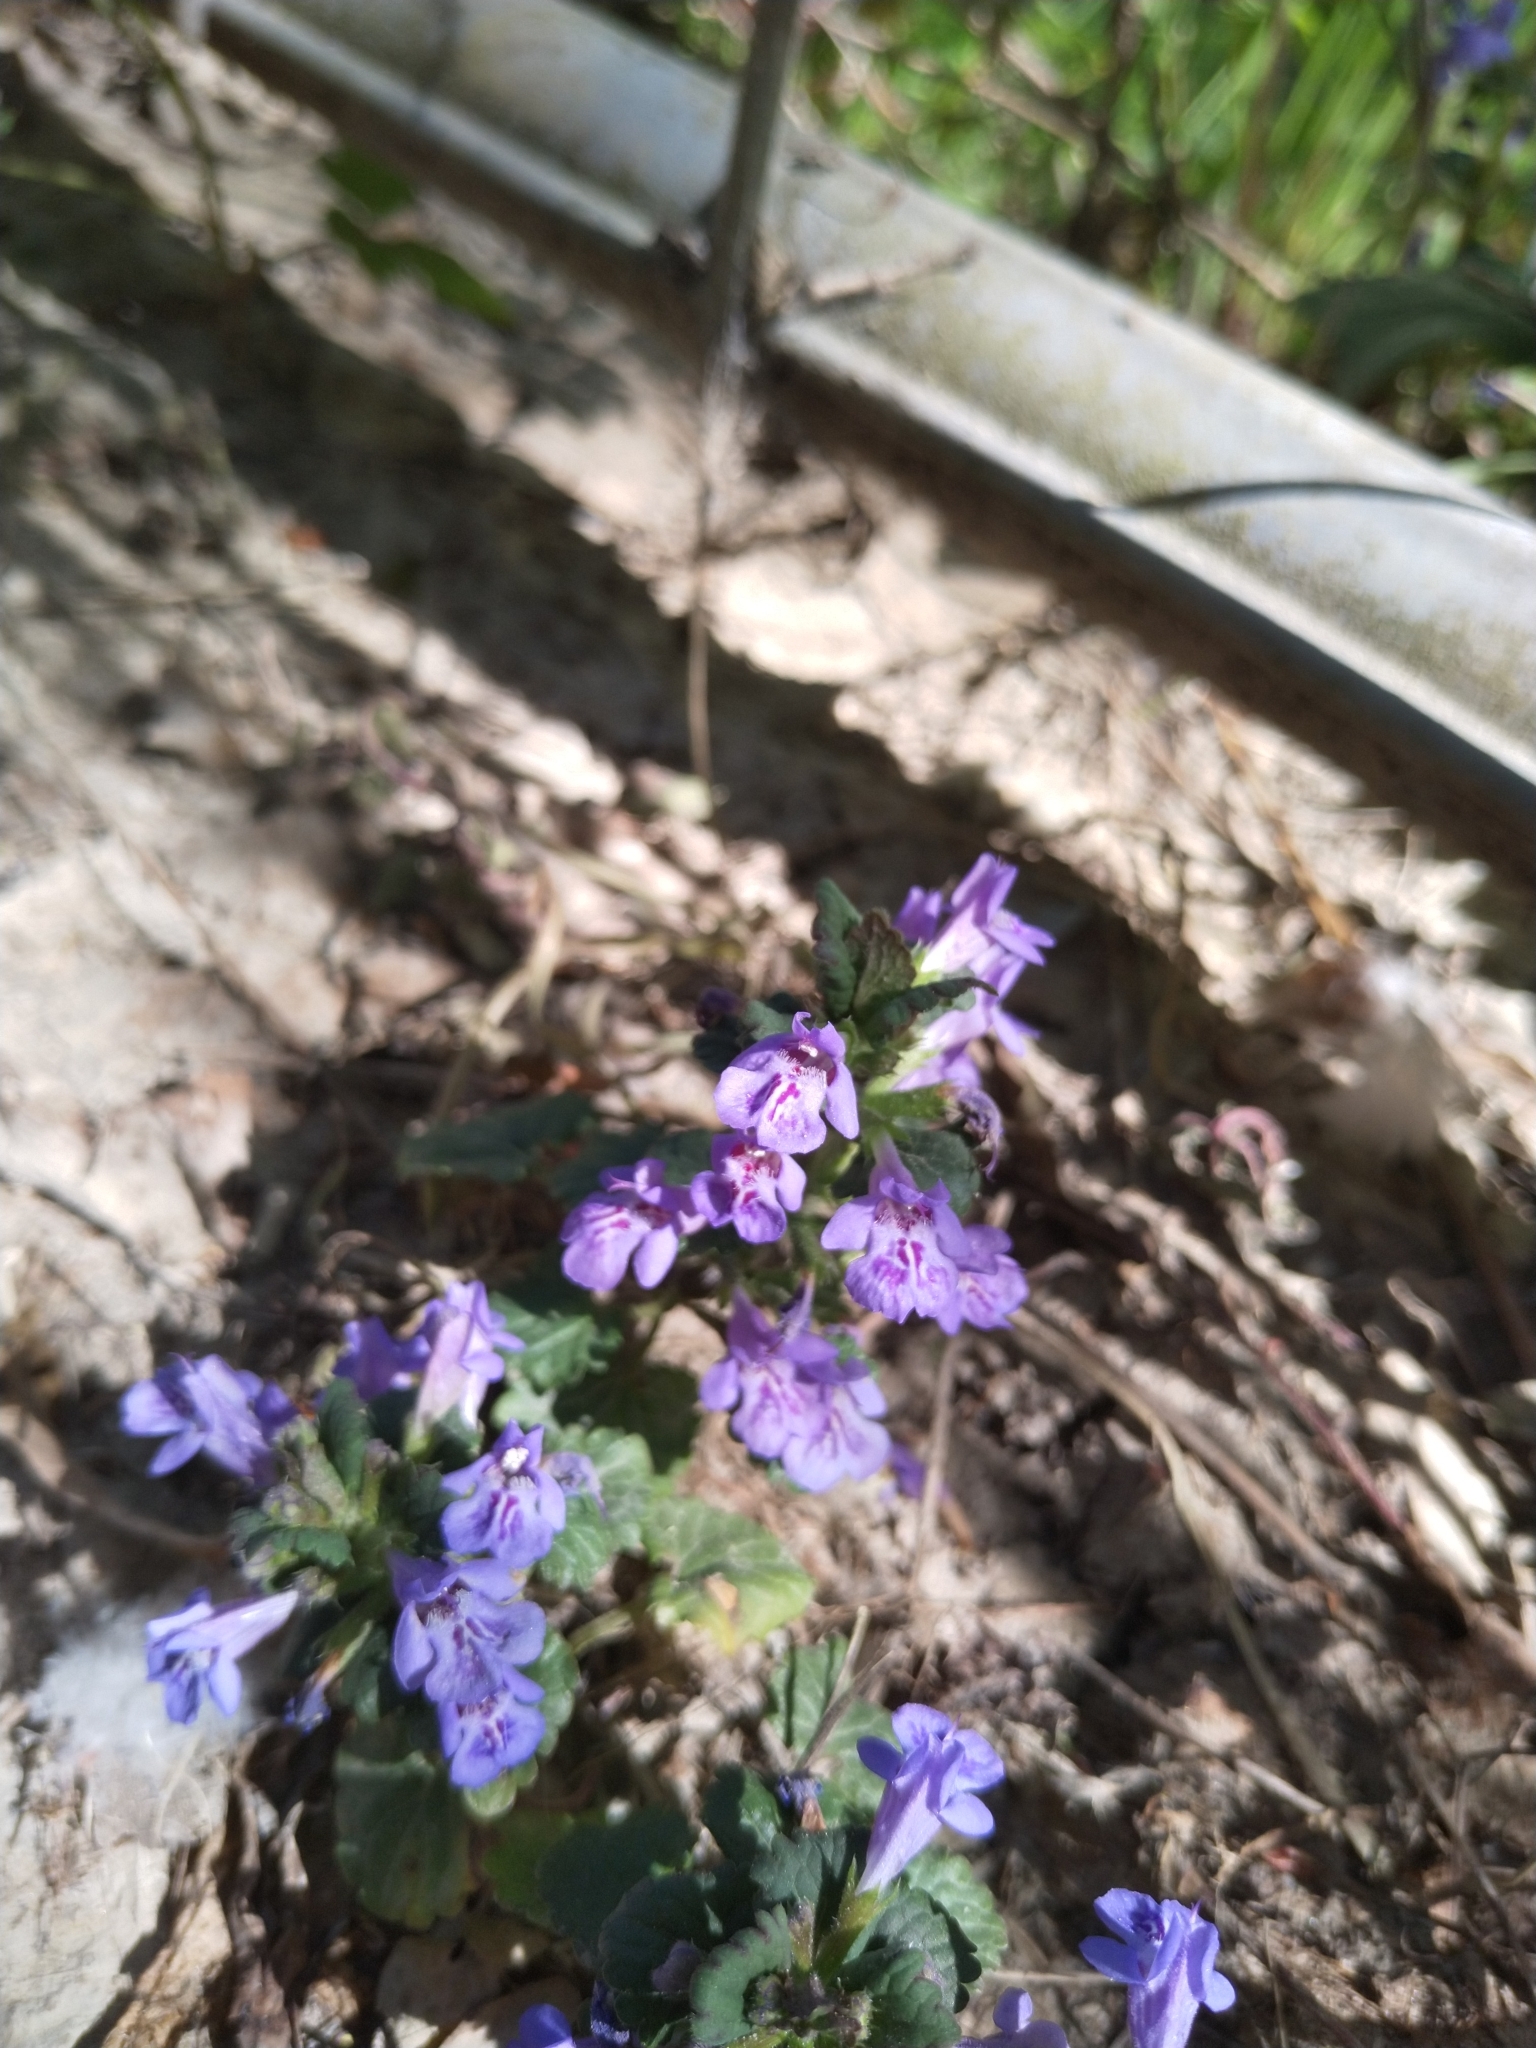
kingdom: Plantae
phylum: Tracheophyta
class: Magnoliopsida
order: Lamiales
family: Lamiaceae
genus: Glechoma
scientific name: Glechoma hederacea
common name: Ground ivy
